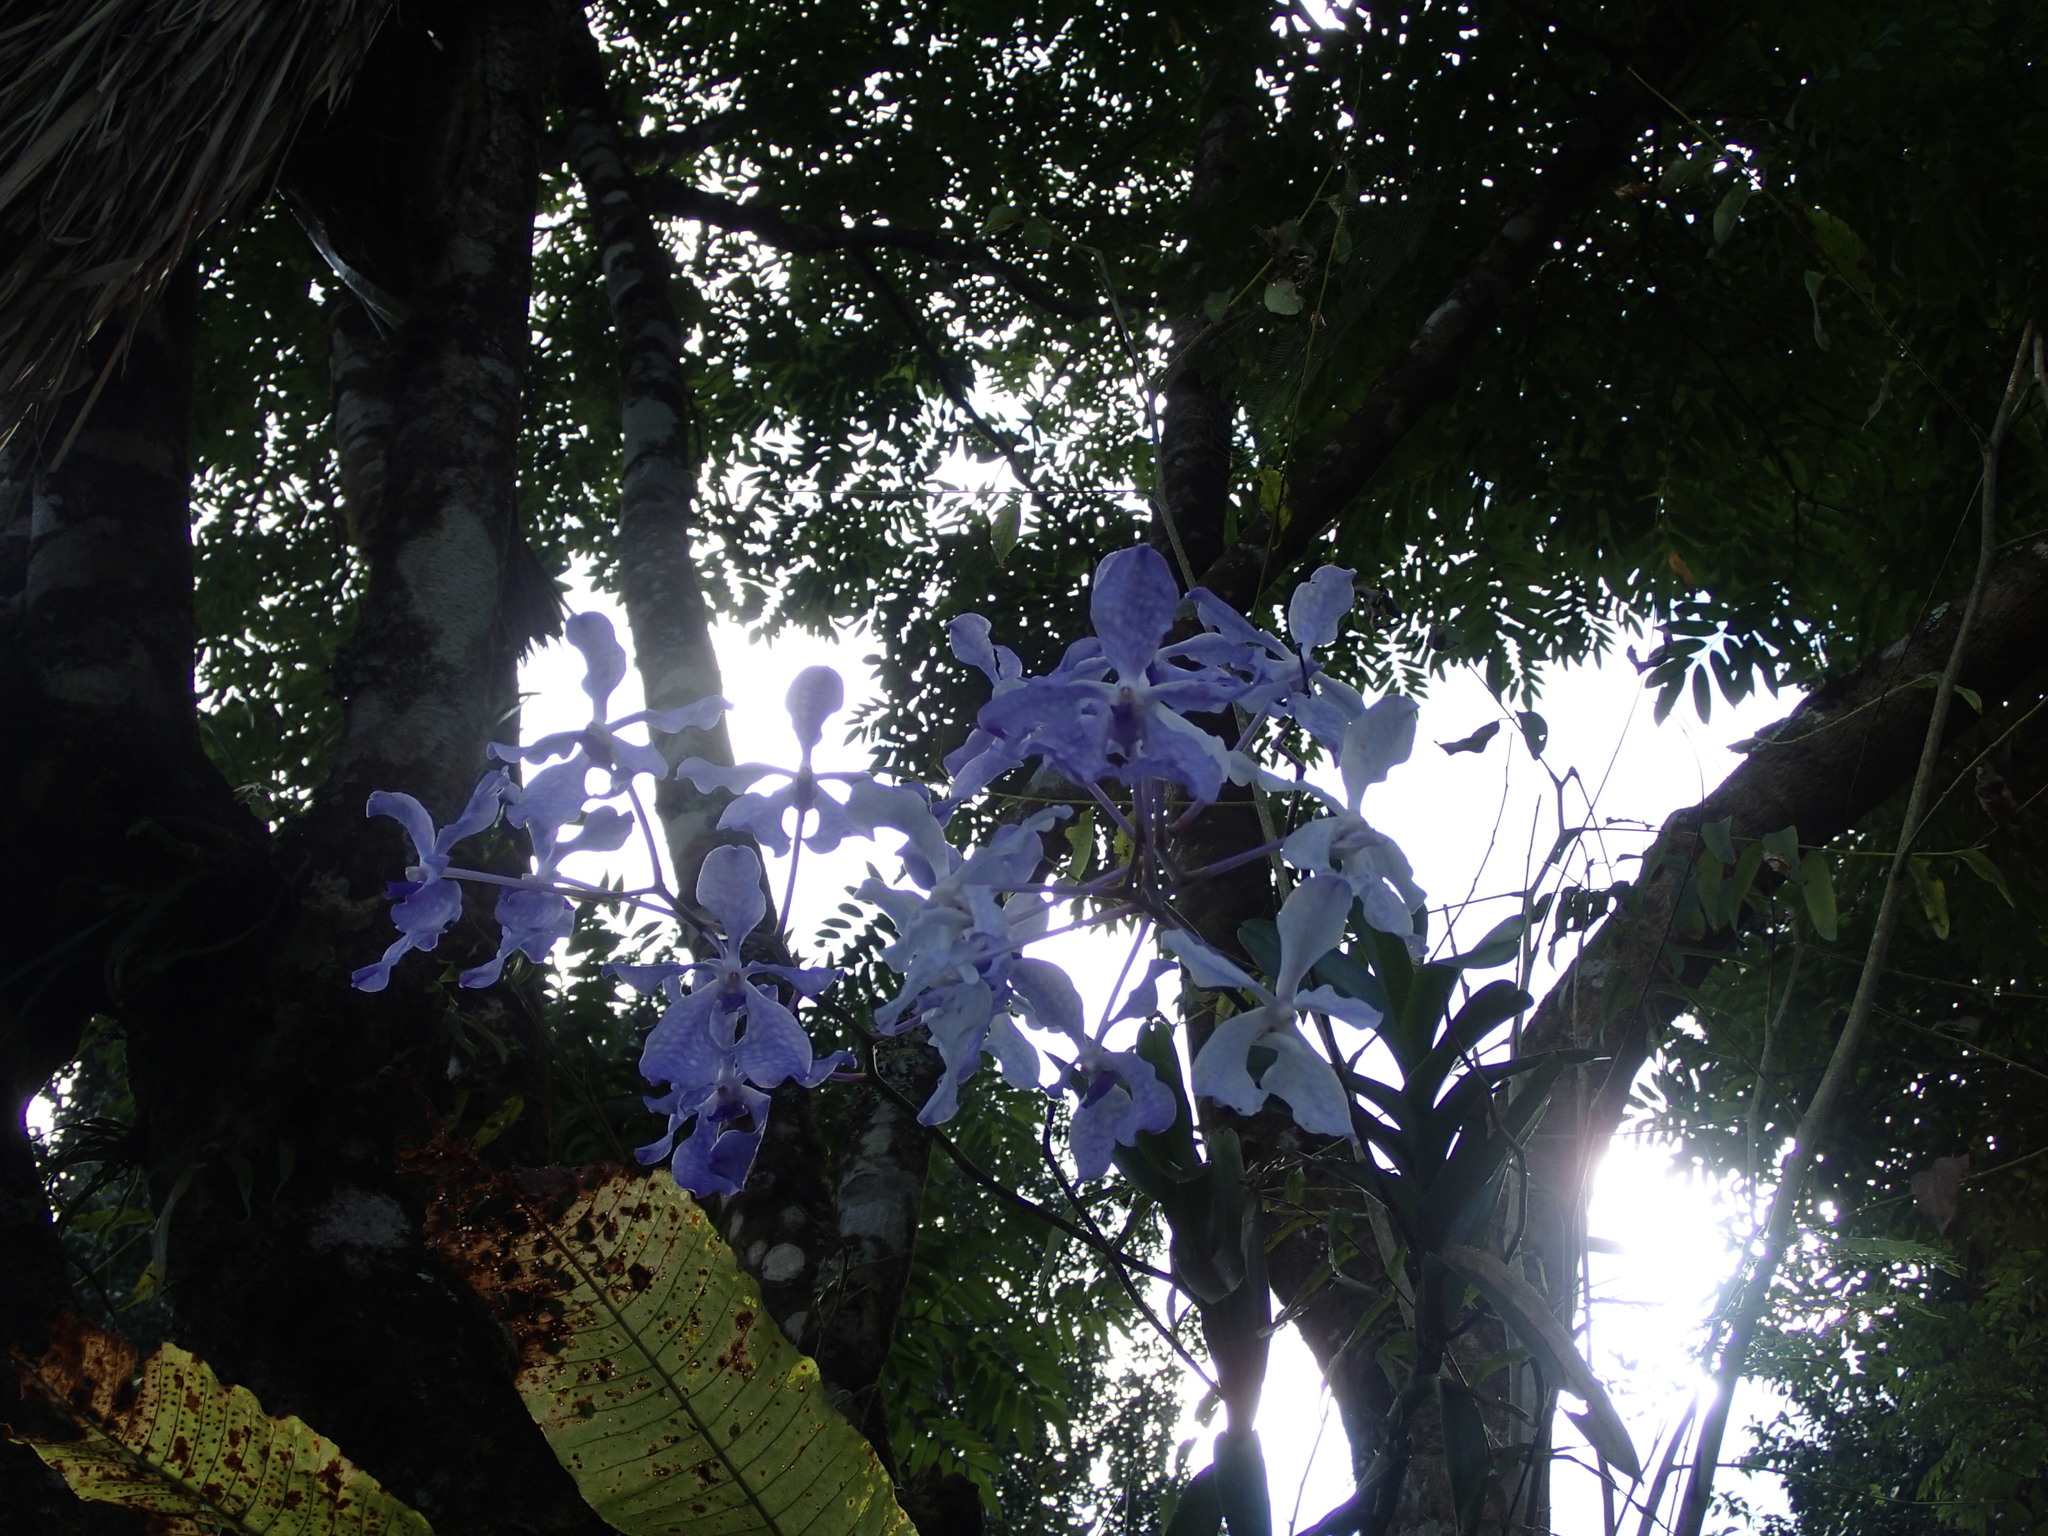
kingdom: Plantae
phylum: Tracheophyta
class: Liliopsida
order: Asparagales
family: Orchidaceae
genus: Vanda
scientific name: Vanda coerulea
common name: Blue orchid
